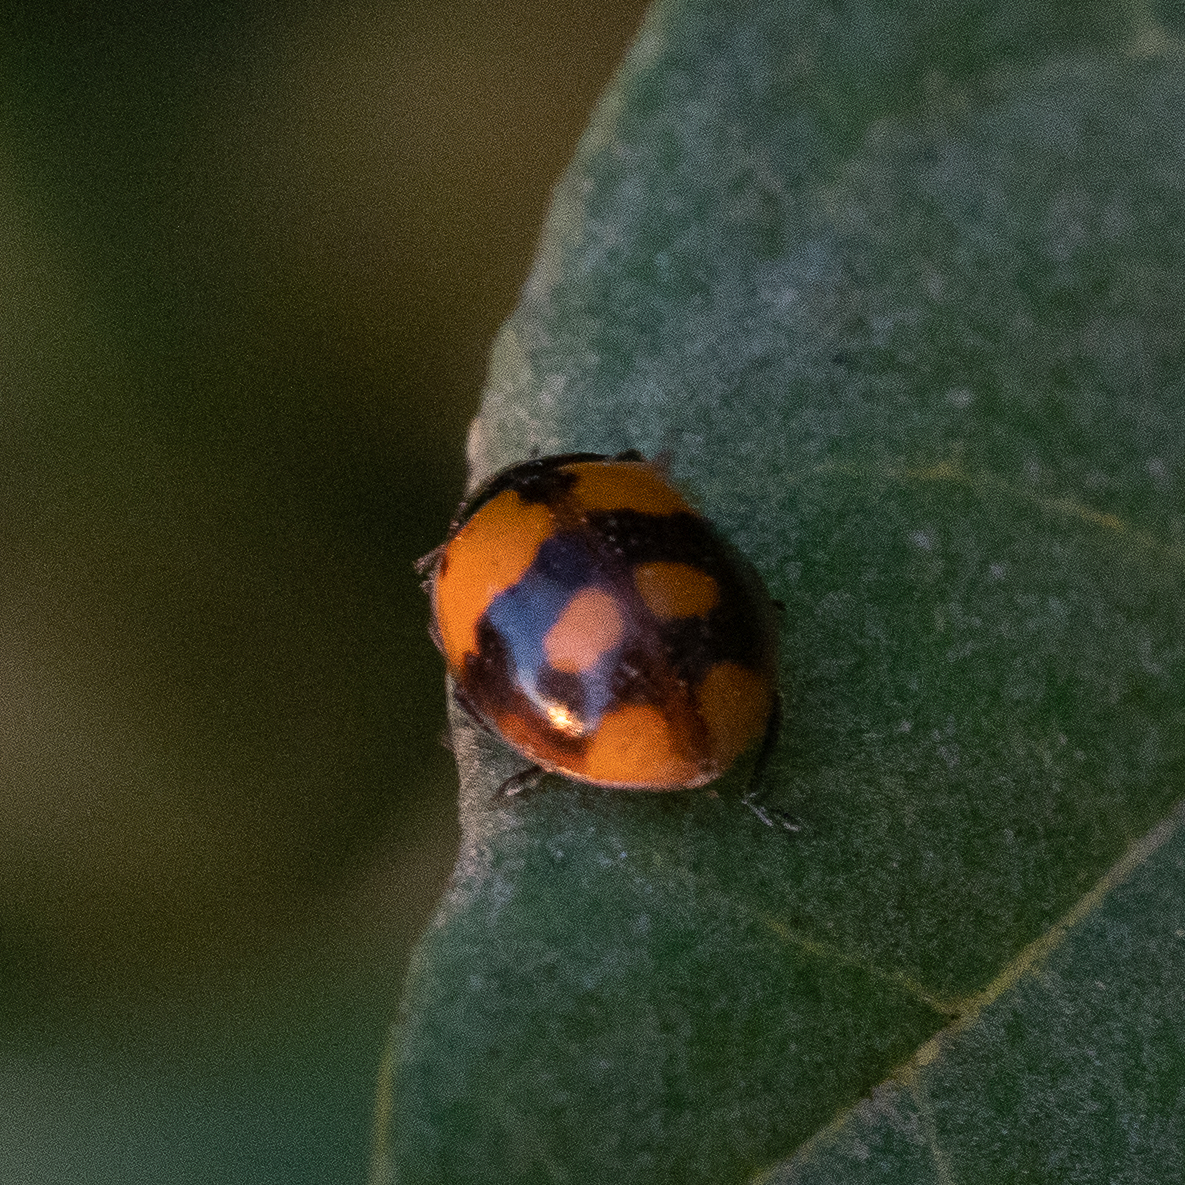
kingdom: Animalia
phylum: Arthropoda
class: Insecta
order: Coleoptera
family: Coccinellidae
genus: Adalia
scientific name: Adalia bipunctata
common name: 2-spot ladybird
